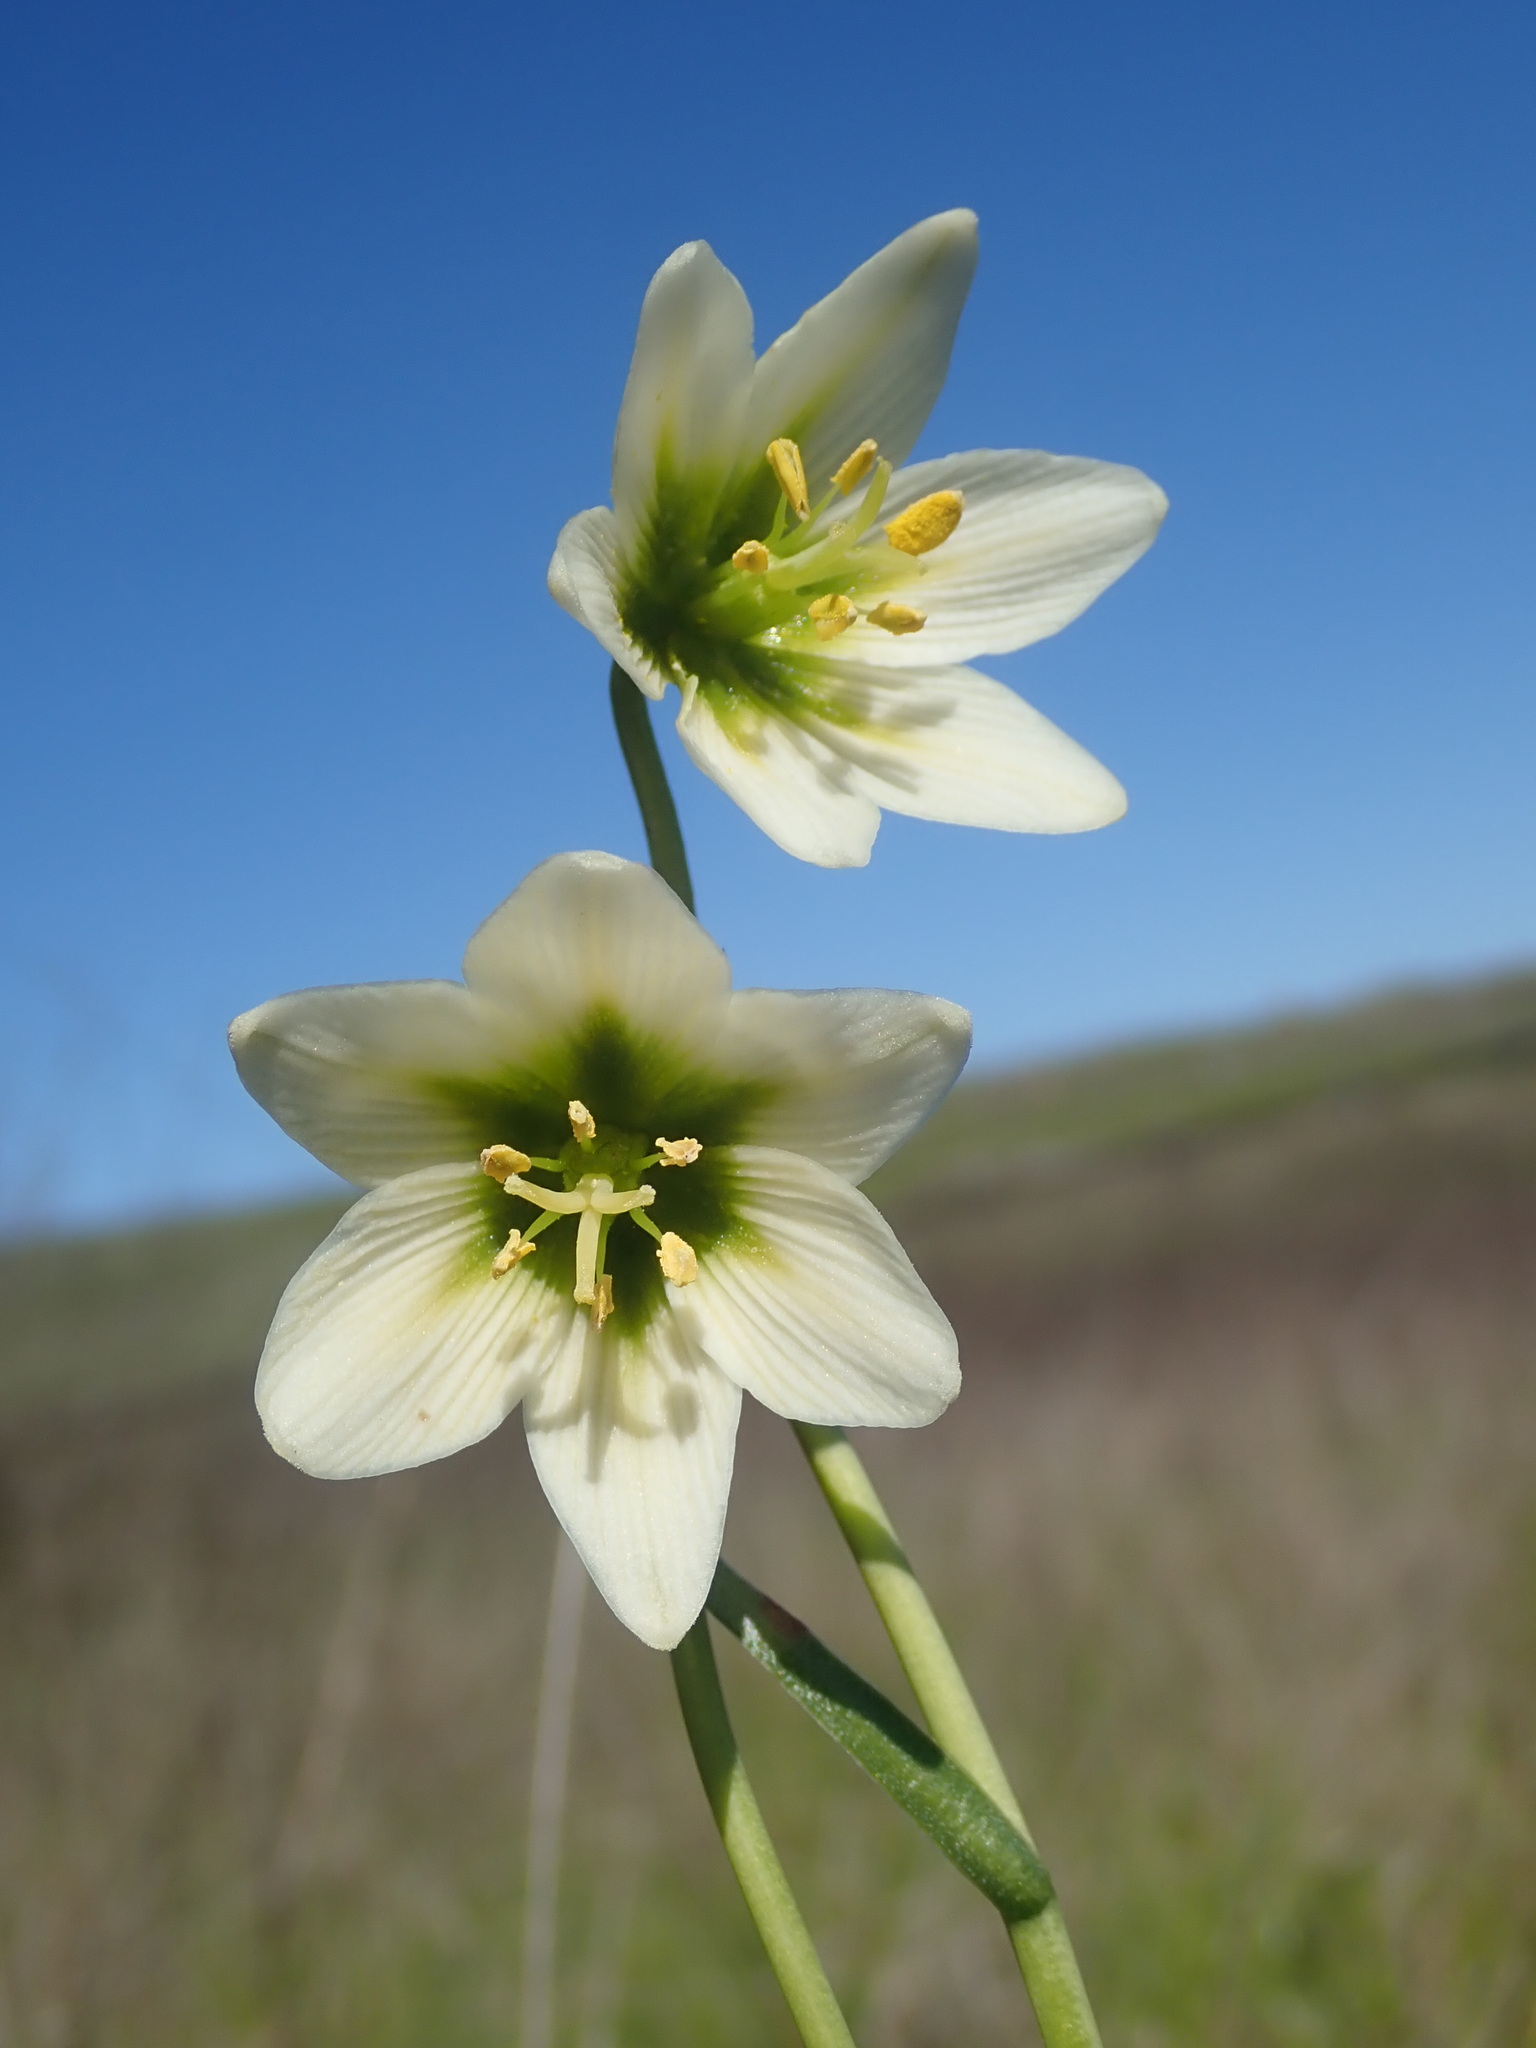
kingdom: Plantae
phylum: Tracheophyta
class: Liliopsida
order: Liliales
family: Liliaceae
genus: Fritillaria
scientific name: Fritillaria liliacea
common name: Fragrant fritillary
